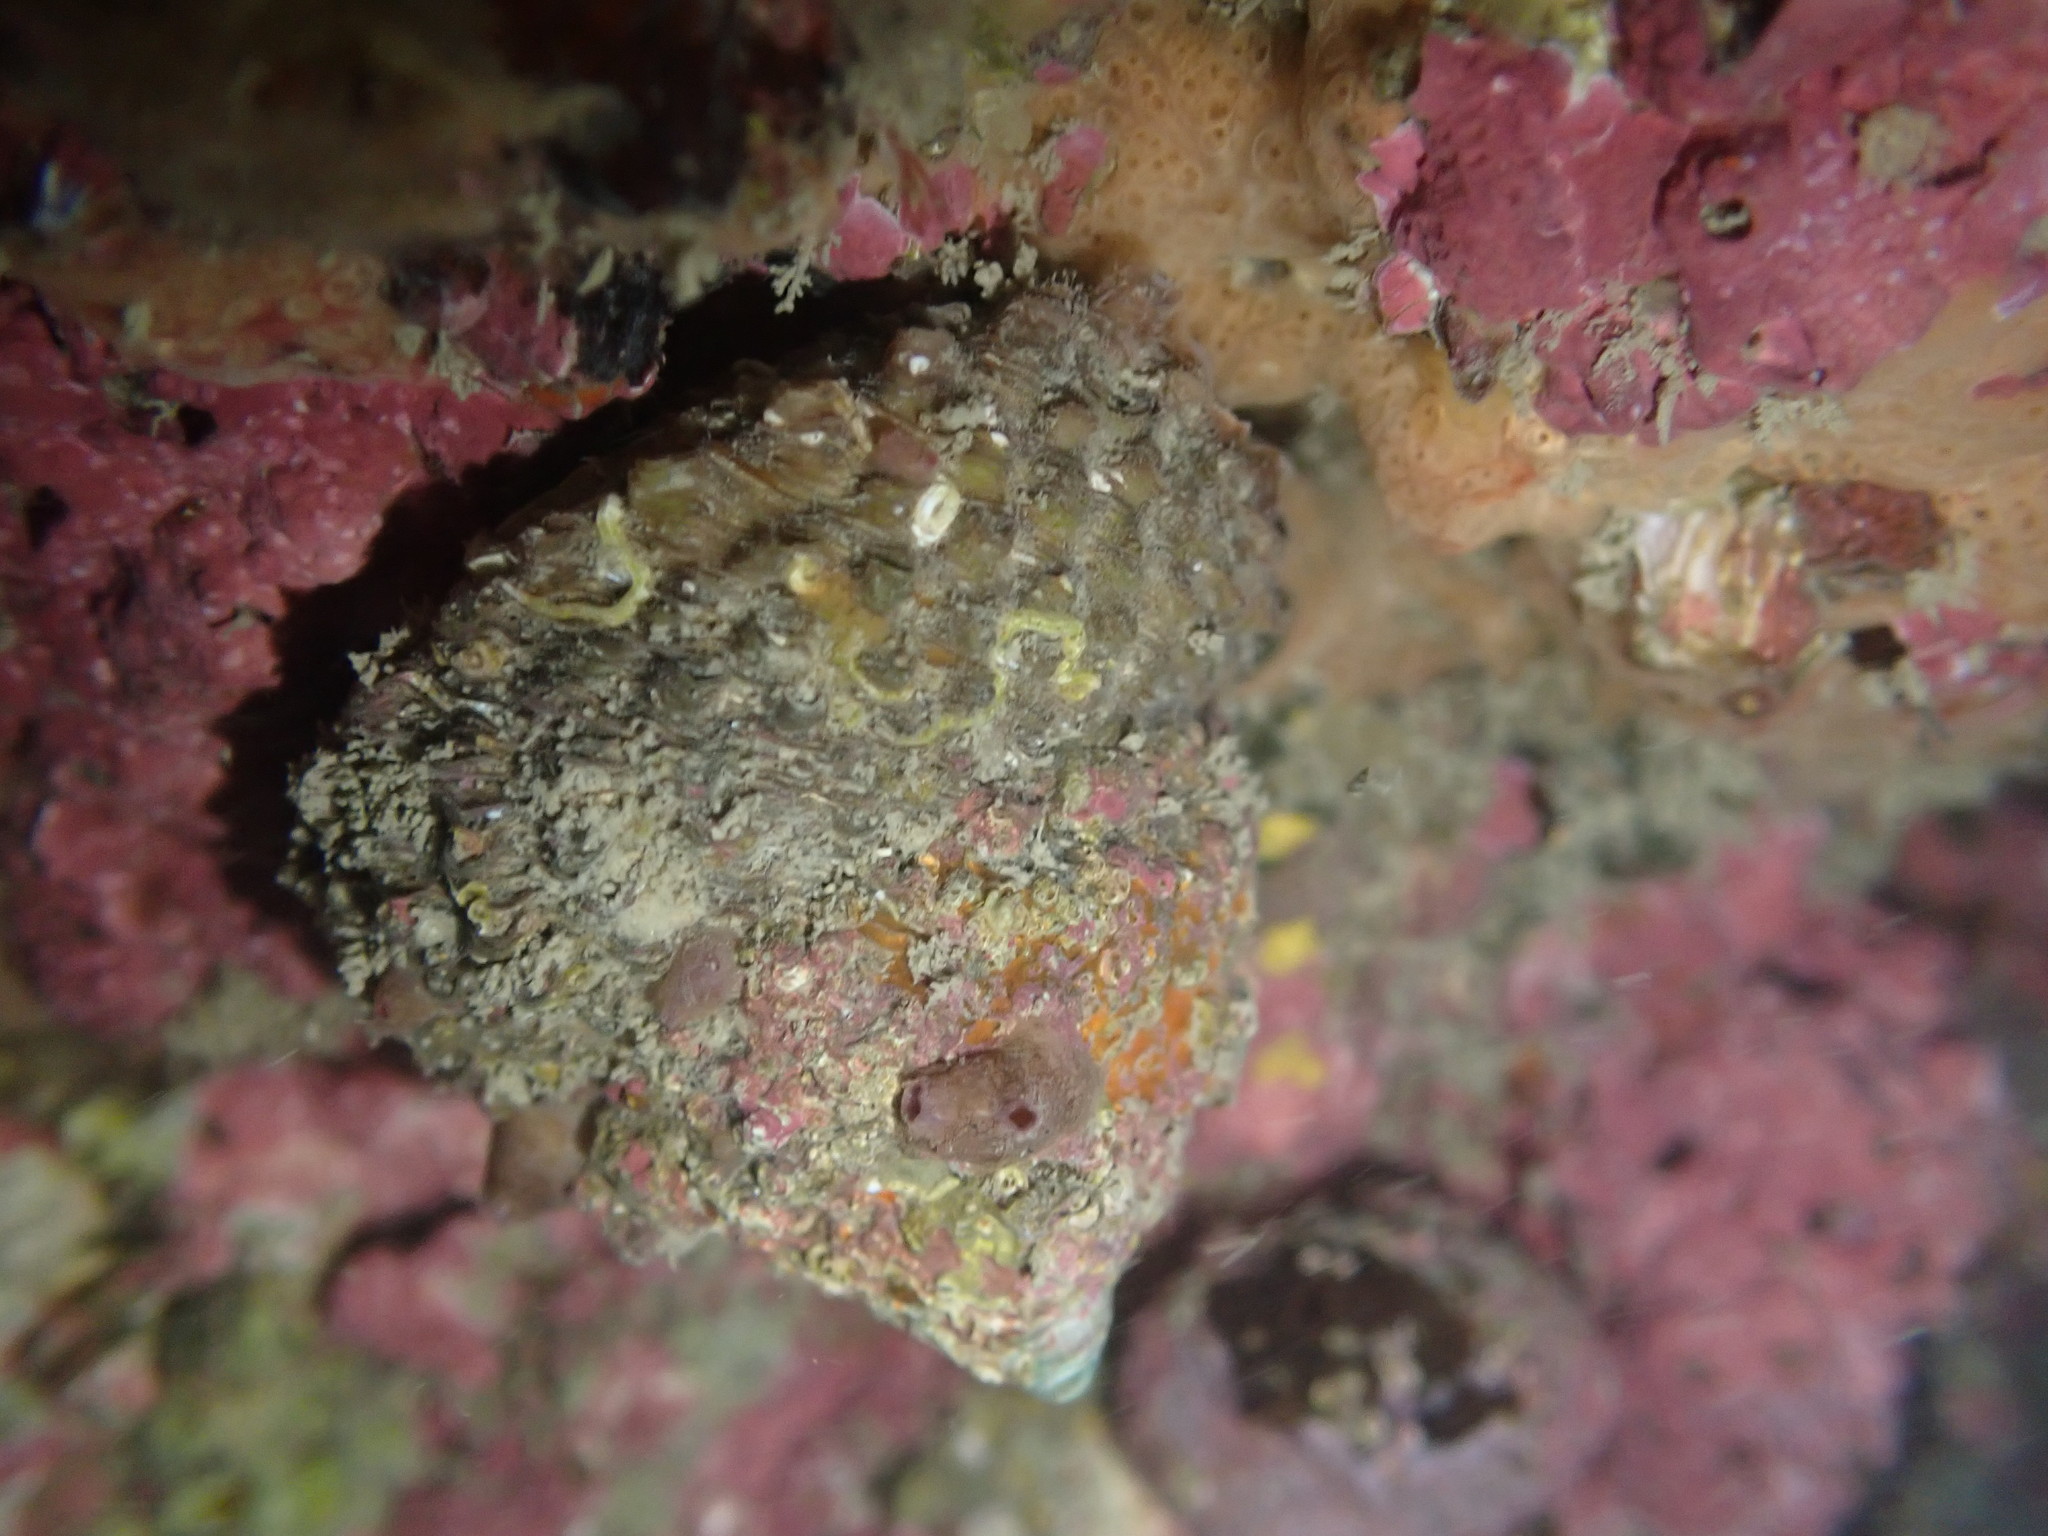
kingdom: Animalia
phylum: Mollusca
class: Gastropoda
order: Trochida
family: Turbinidae
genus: Cookia
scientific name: Cookia sulcata
